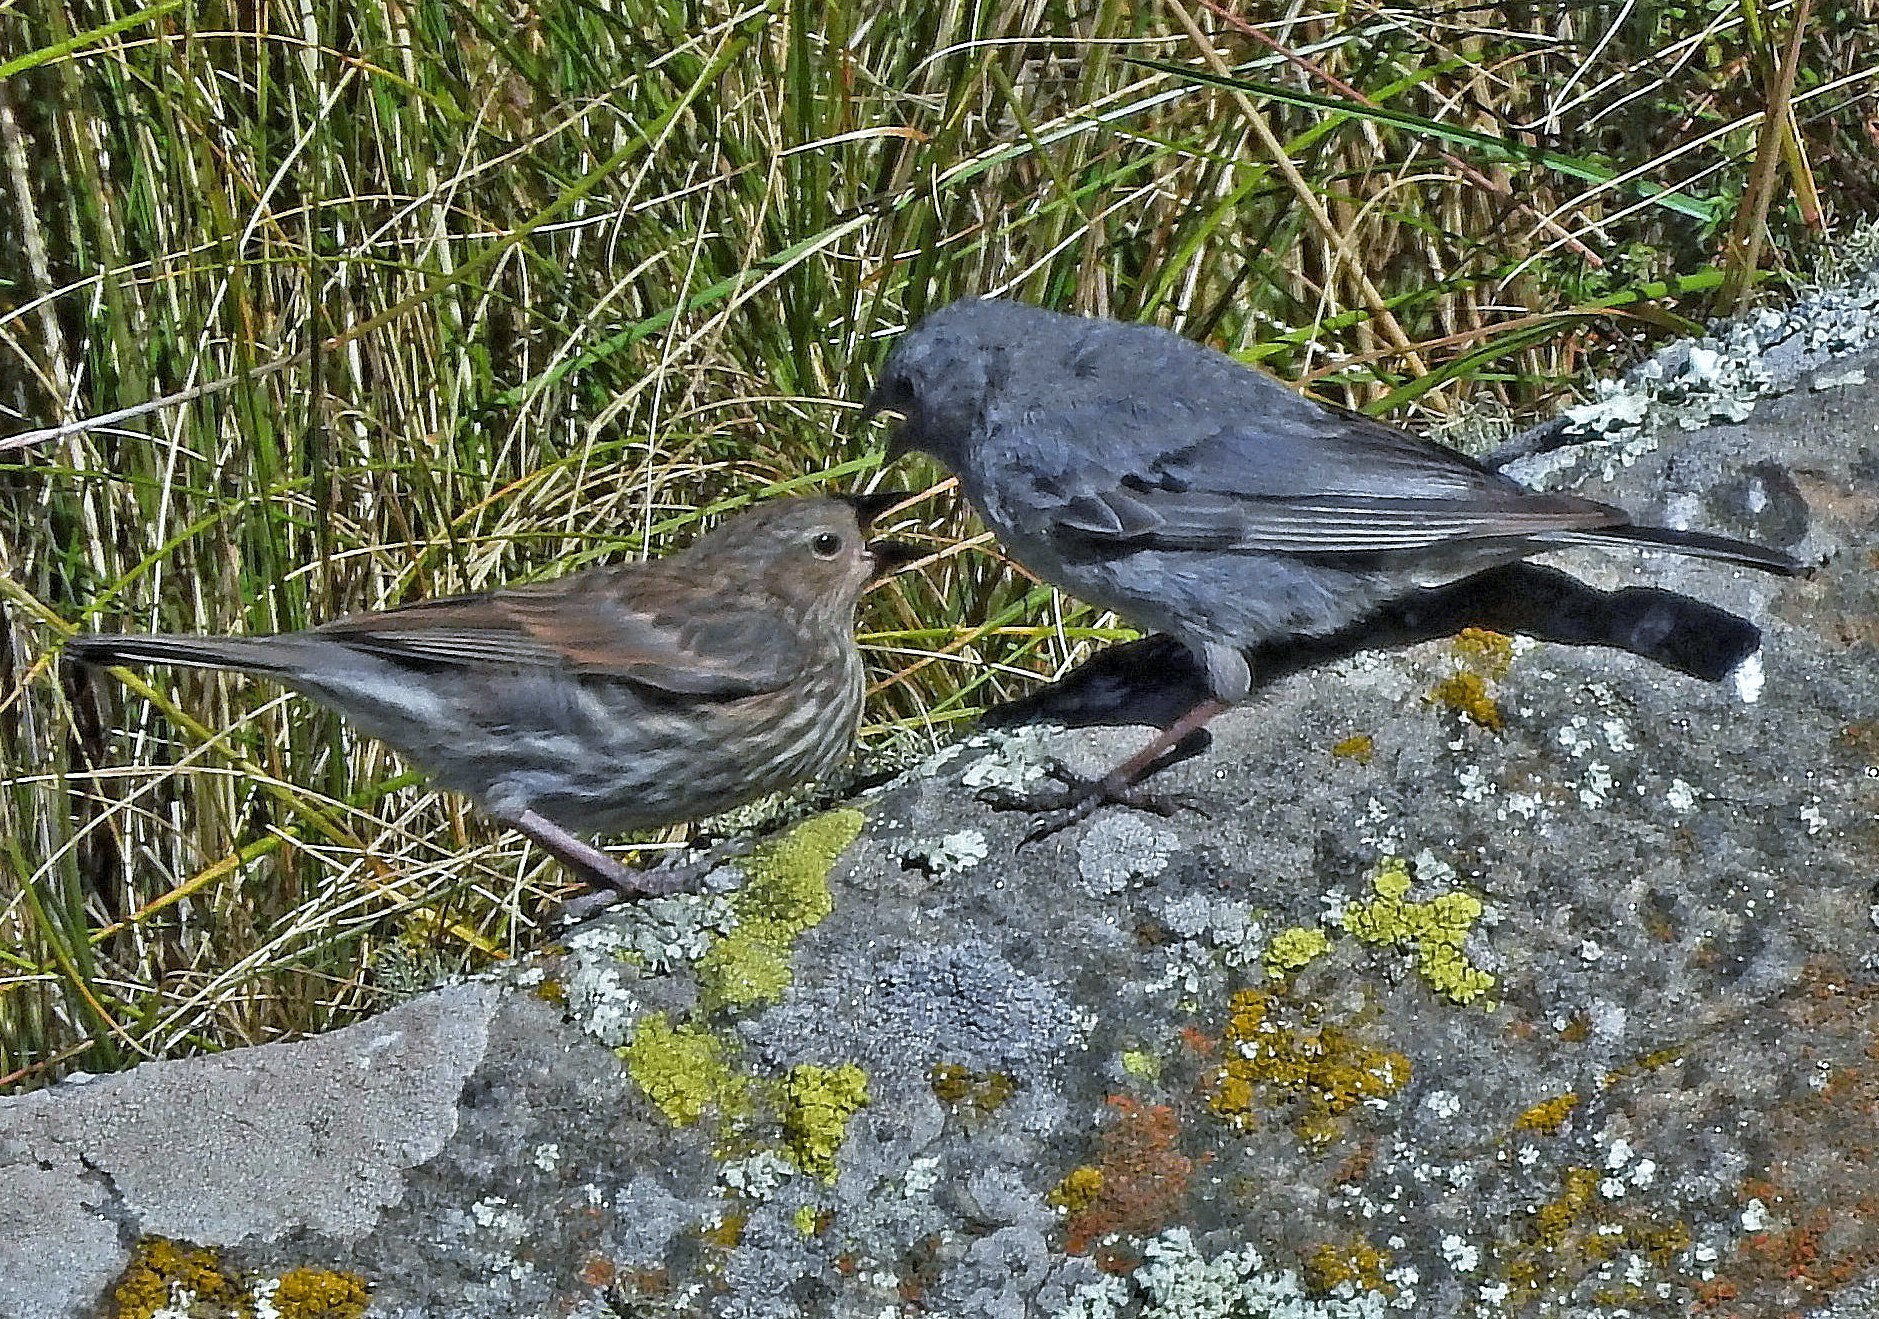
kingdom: Animalia
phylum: Chordata
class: Aves
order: Passeriformes
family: Thraupidae
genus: Geospizopsis
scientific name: Geospizopsis unicolor
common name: Plumbeous sierra-finch
